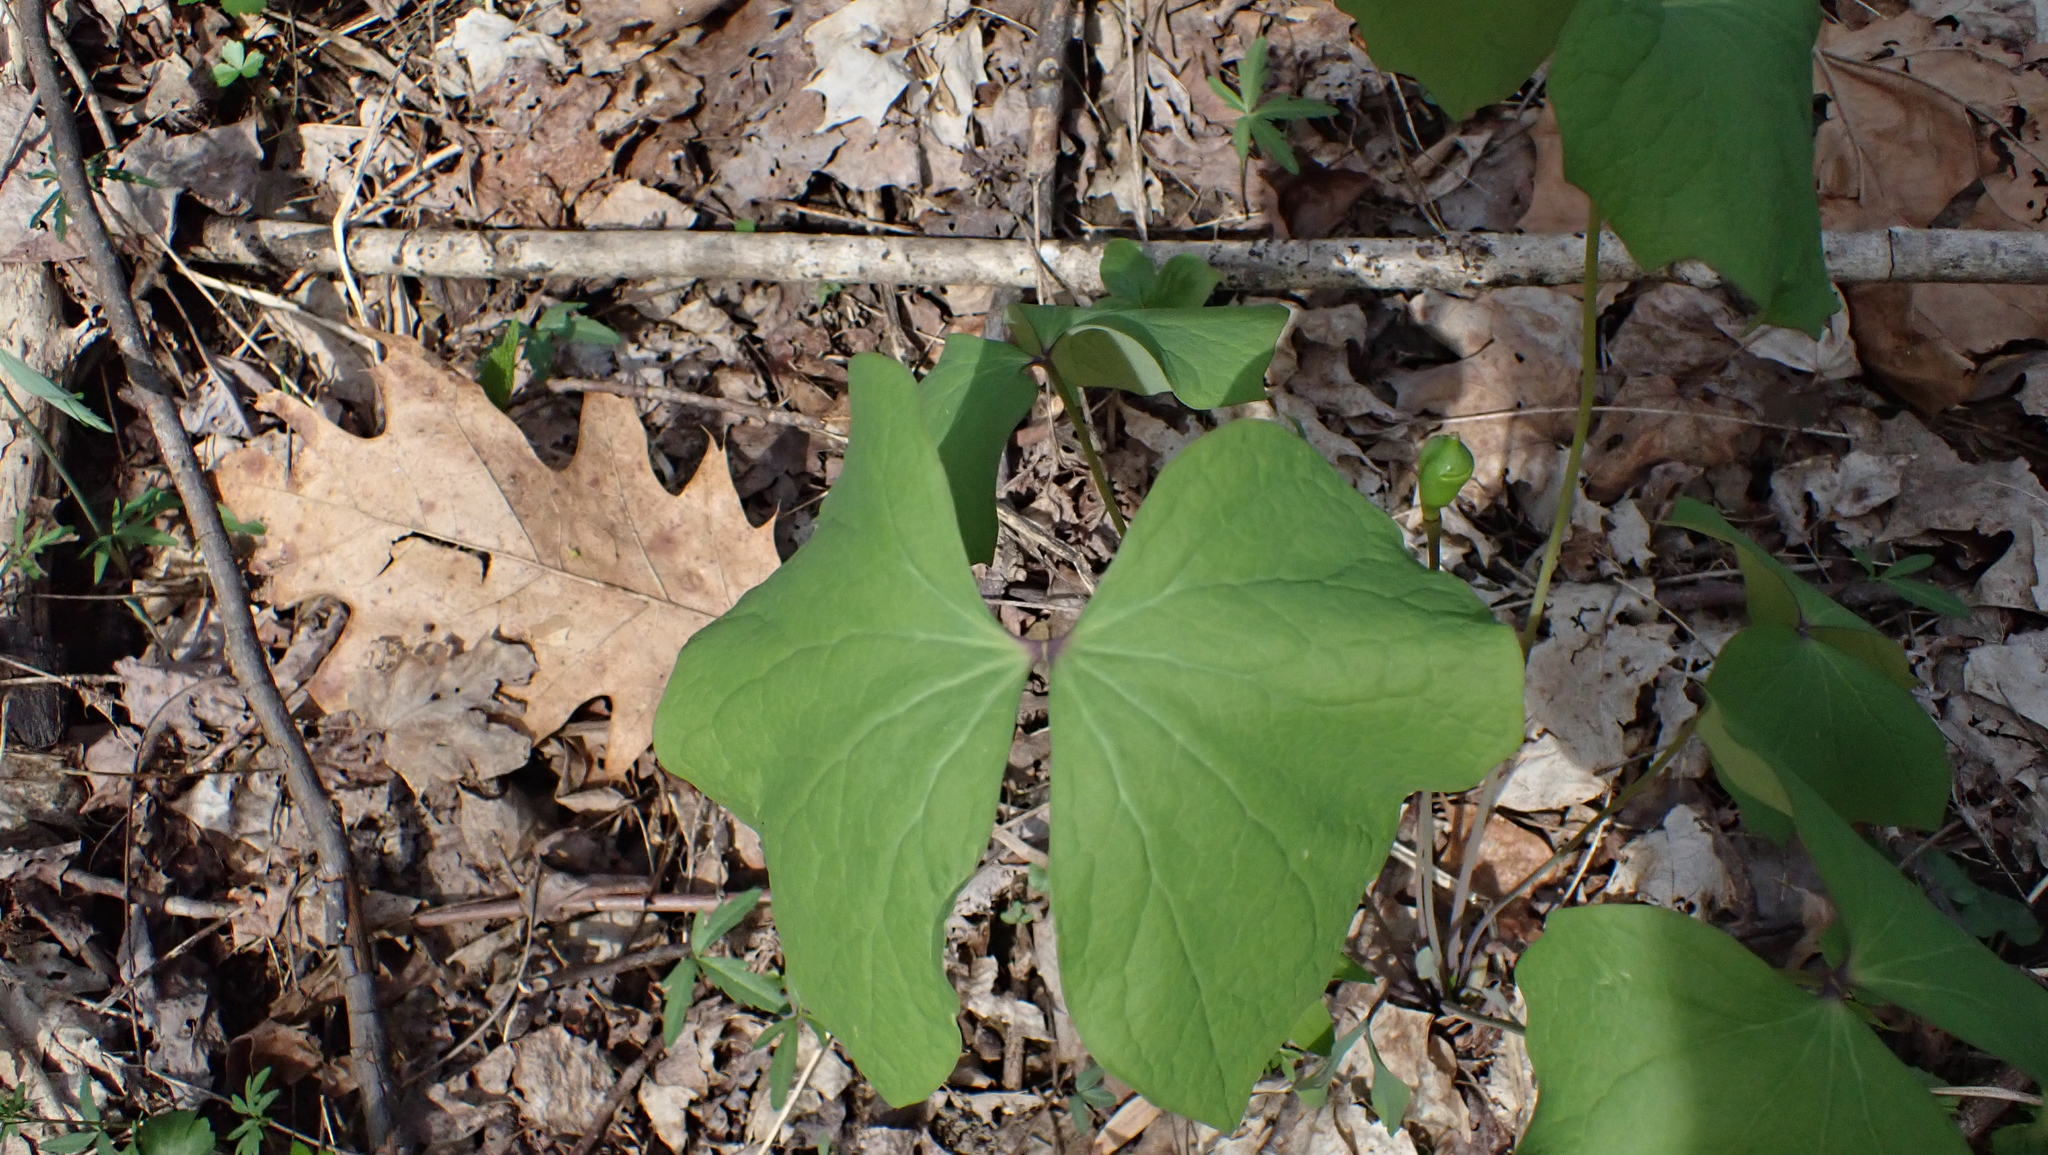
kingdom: Plantae
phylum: Tracheophyta
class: Magnoliopsida
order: Ranunculales
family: Berberidaceae
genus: Jeffersonia
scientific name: Jeffersonia diphylla
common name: Rheumatism-root
